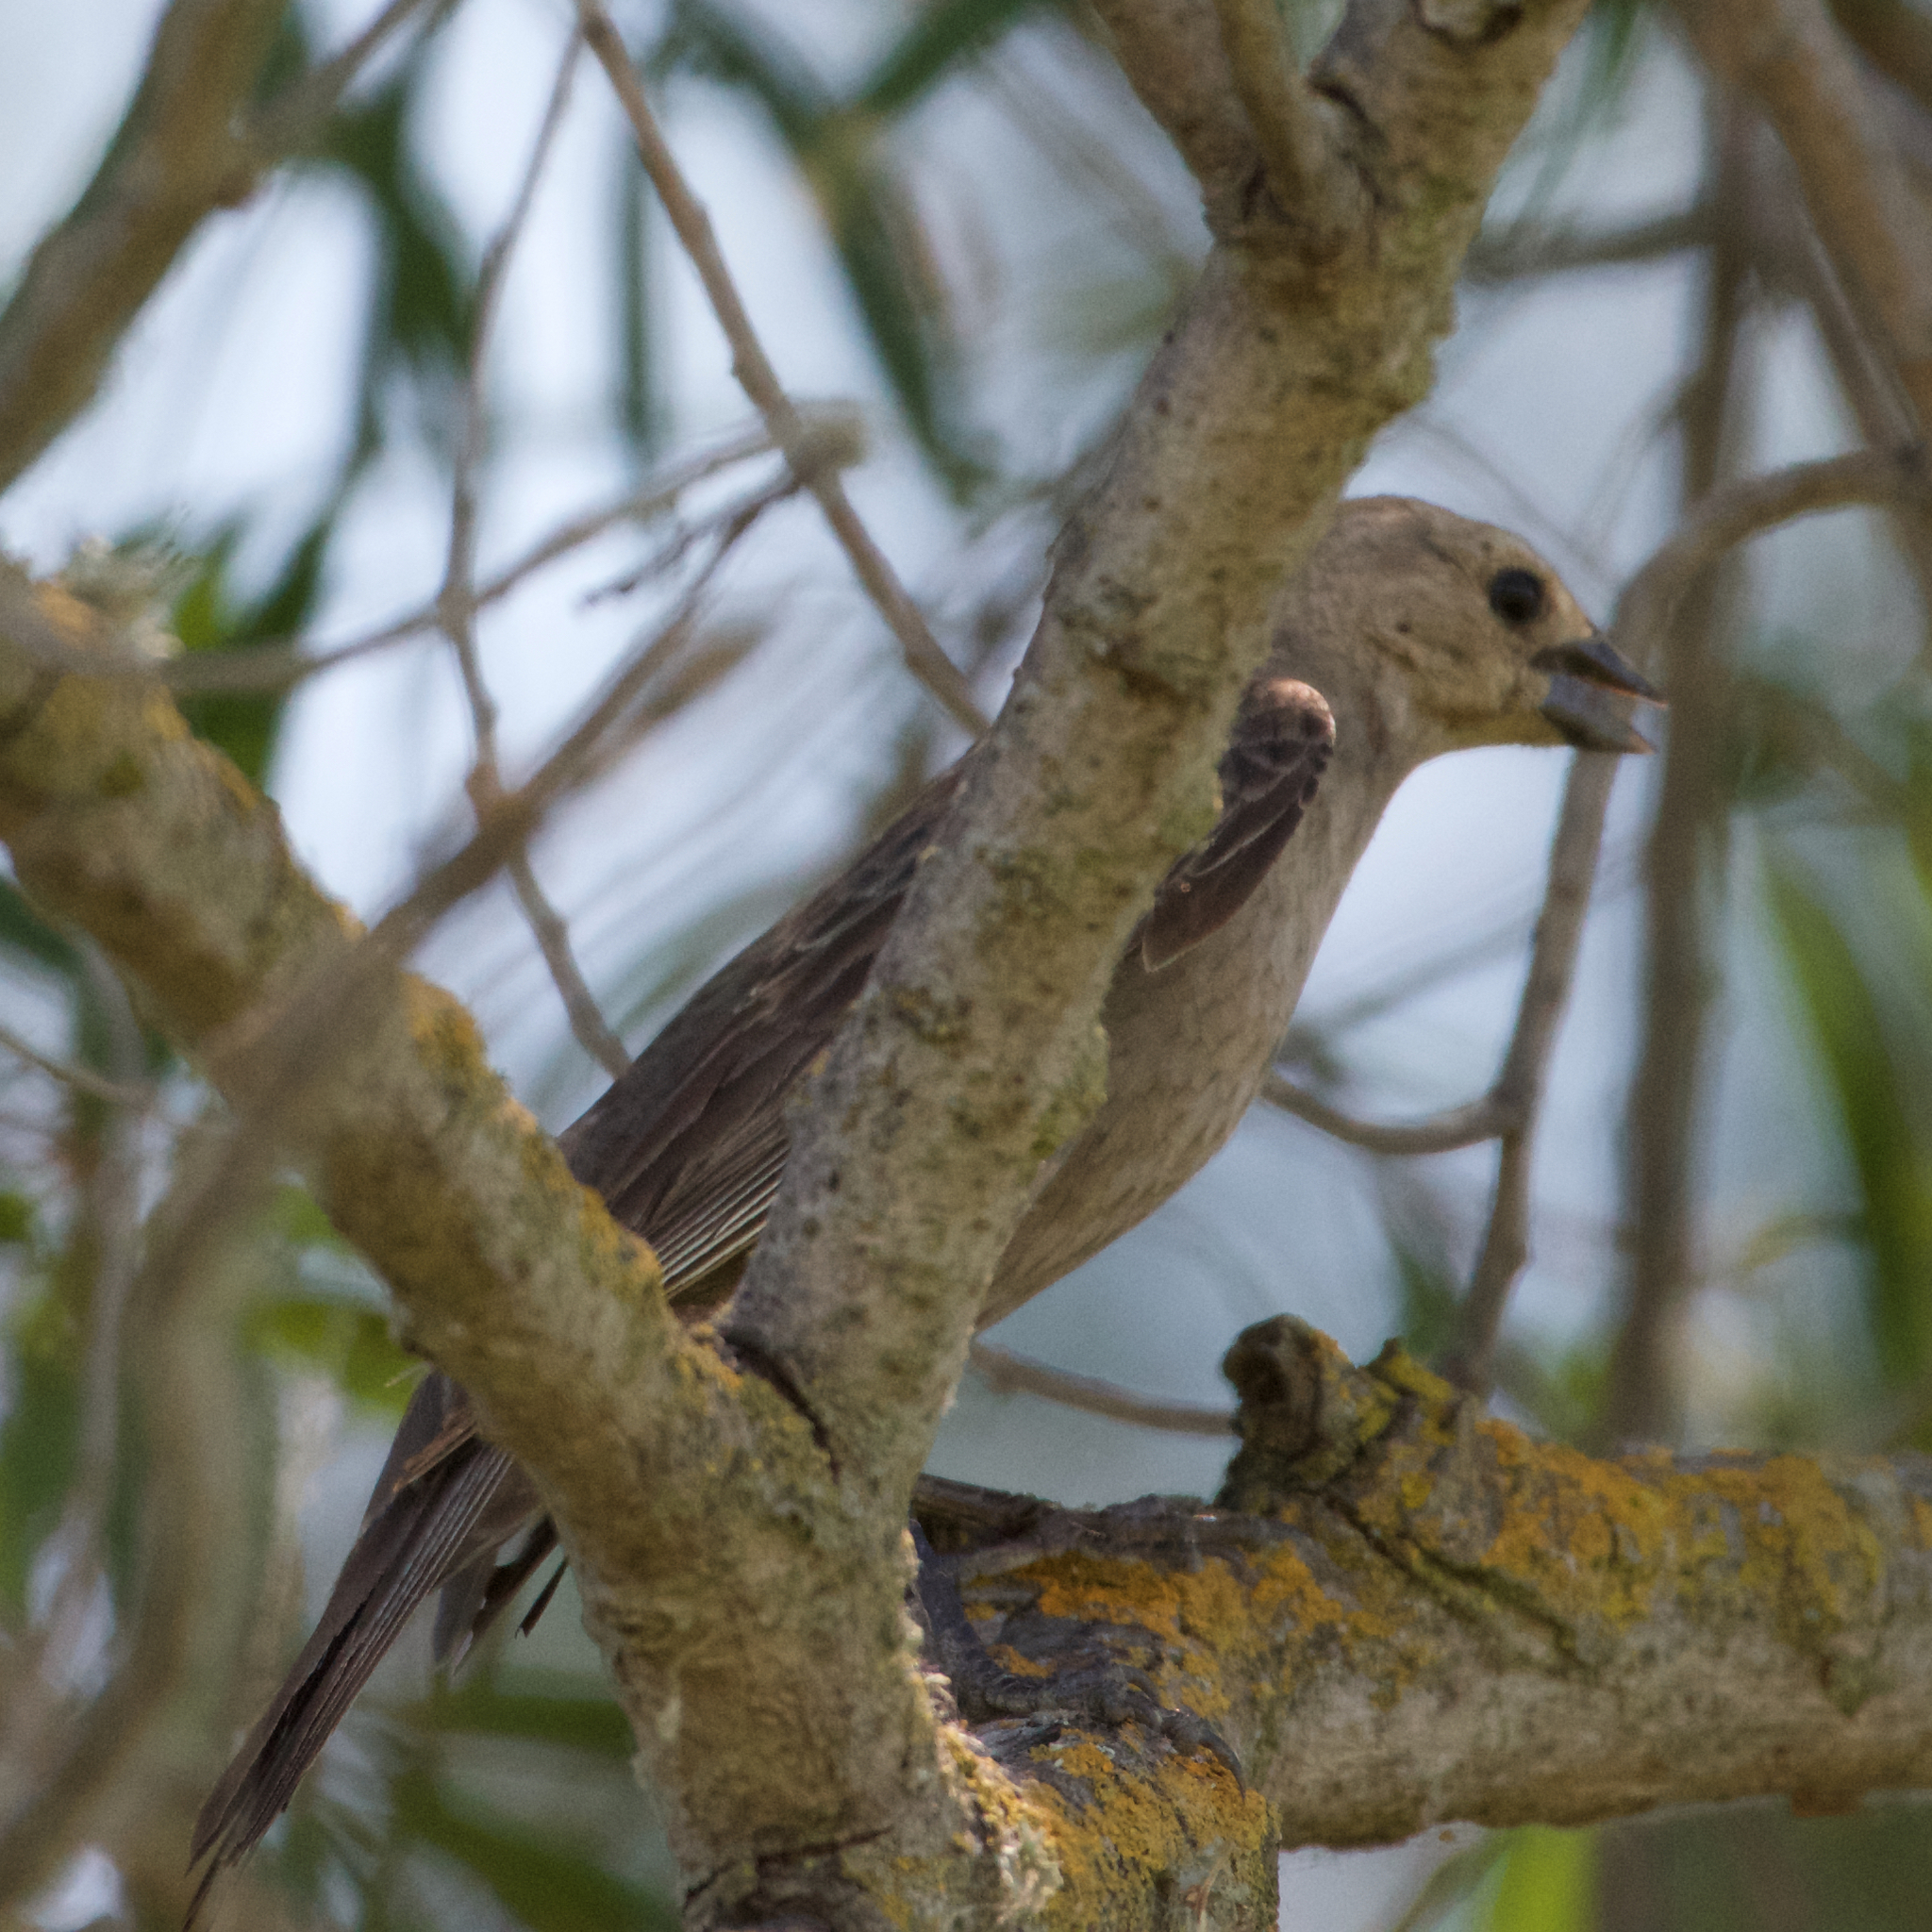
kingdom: Animalia
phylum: Chordata
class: Aves
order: Passeriformes
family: Icteridae
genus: Molothrus
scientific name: Molothrus ater
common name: Brown-headed cowbird
